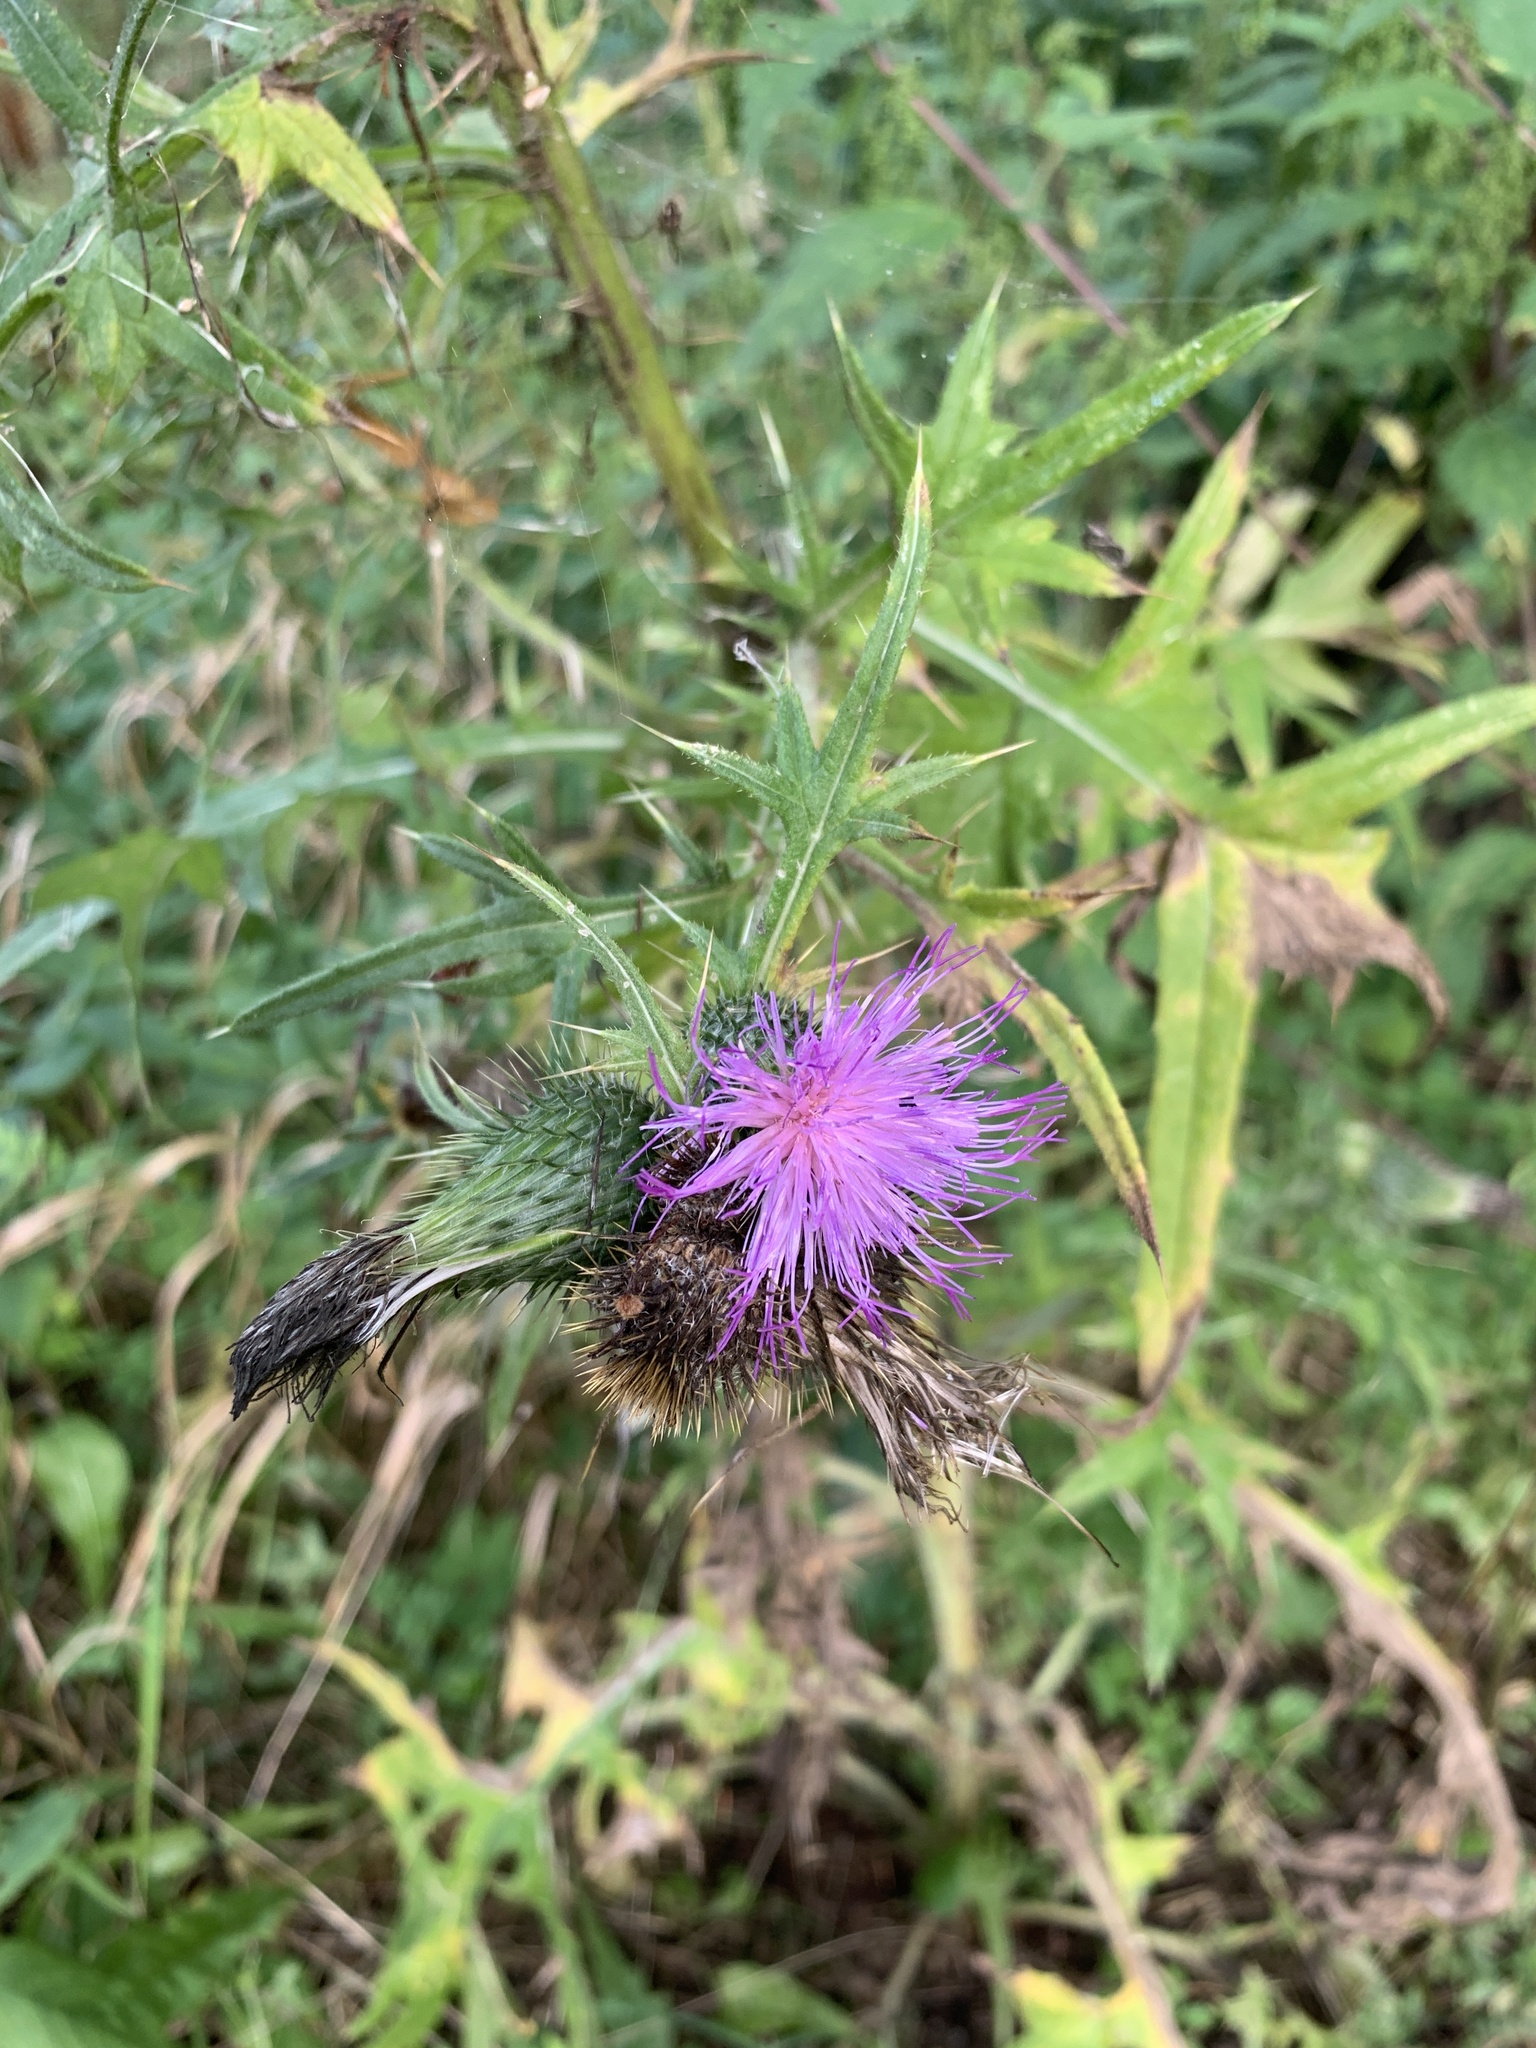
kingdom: Plantae
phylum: Tracheophyta
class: Magnoliopsida
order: Asterales
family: Asteraceae
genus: Cirsium
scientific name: Cirsium vulgare
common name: Bull thistle
